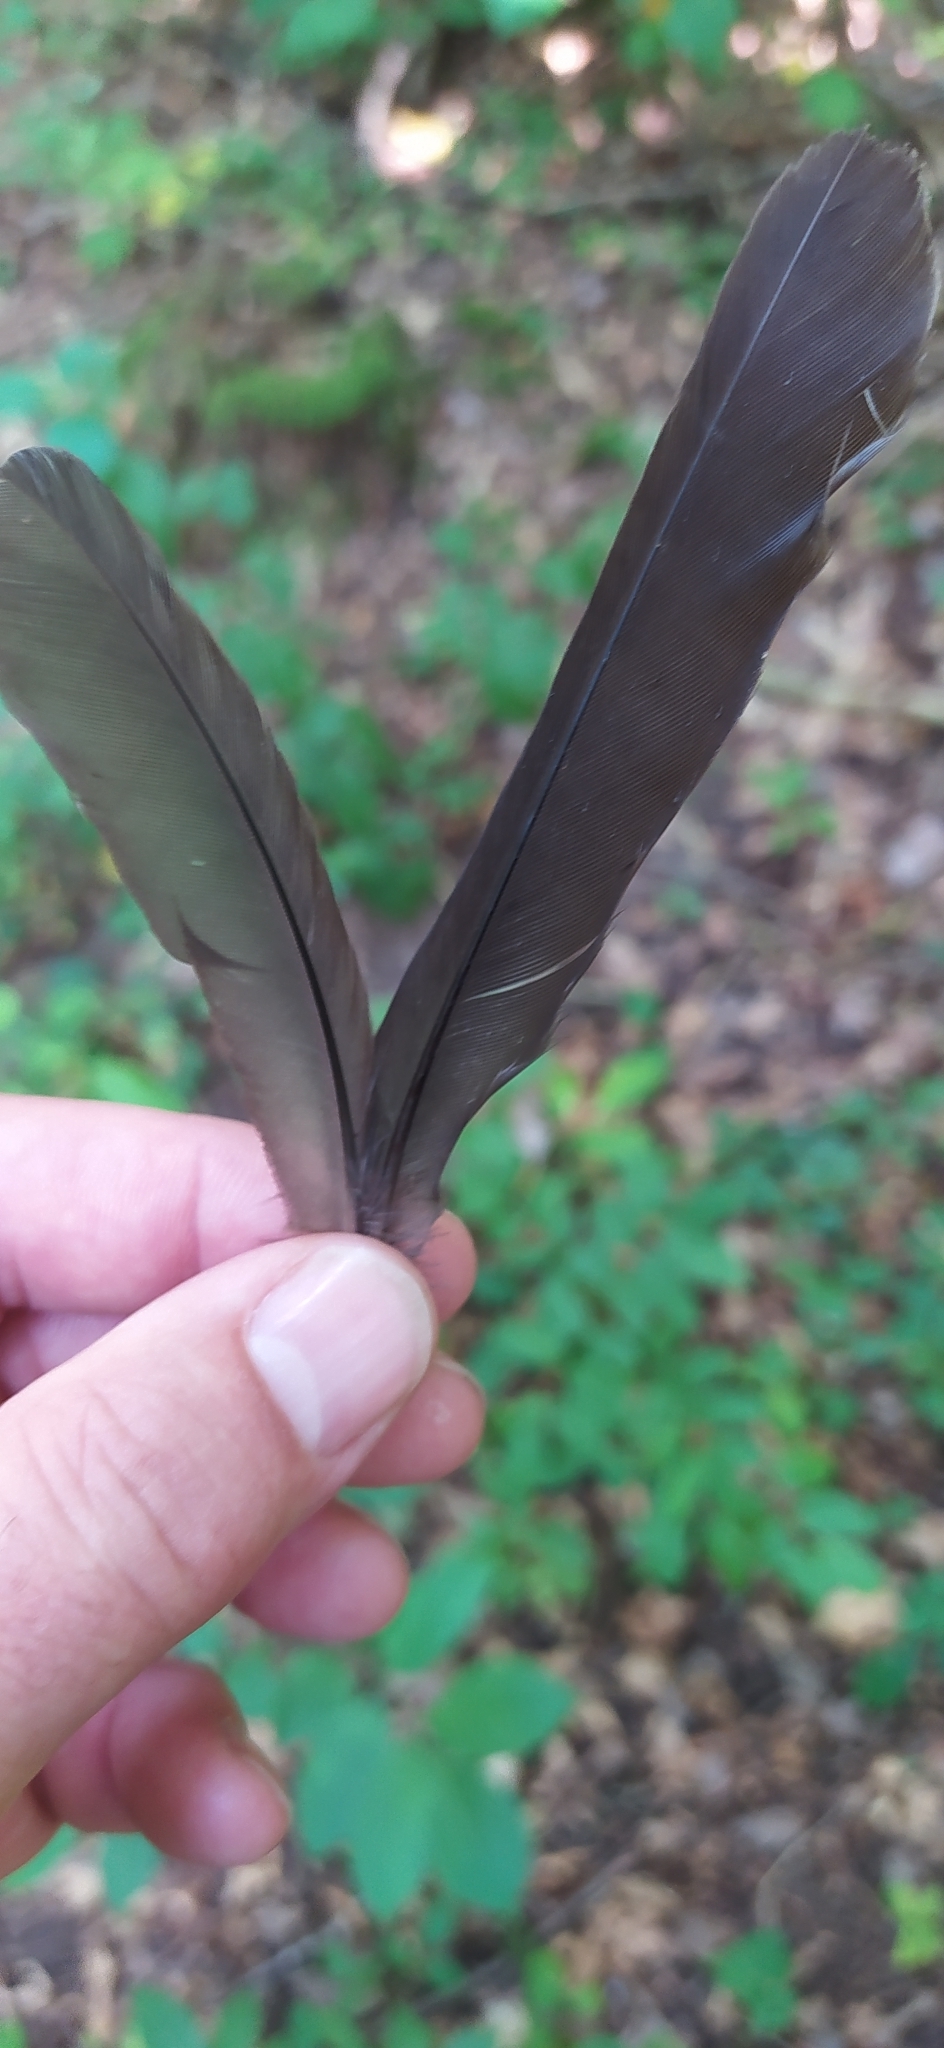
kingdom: Animalia
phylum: Chordata
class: Aves
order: Passeriformes
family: Turdidae
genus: Turdus
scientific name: Turdus merula
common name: Common blackbird
